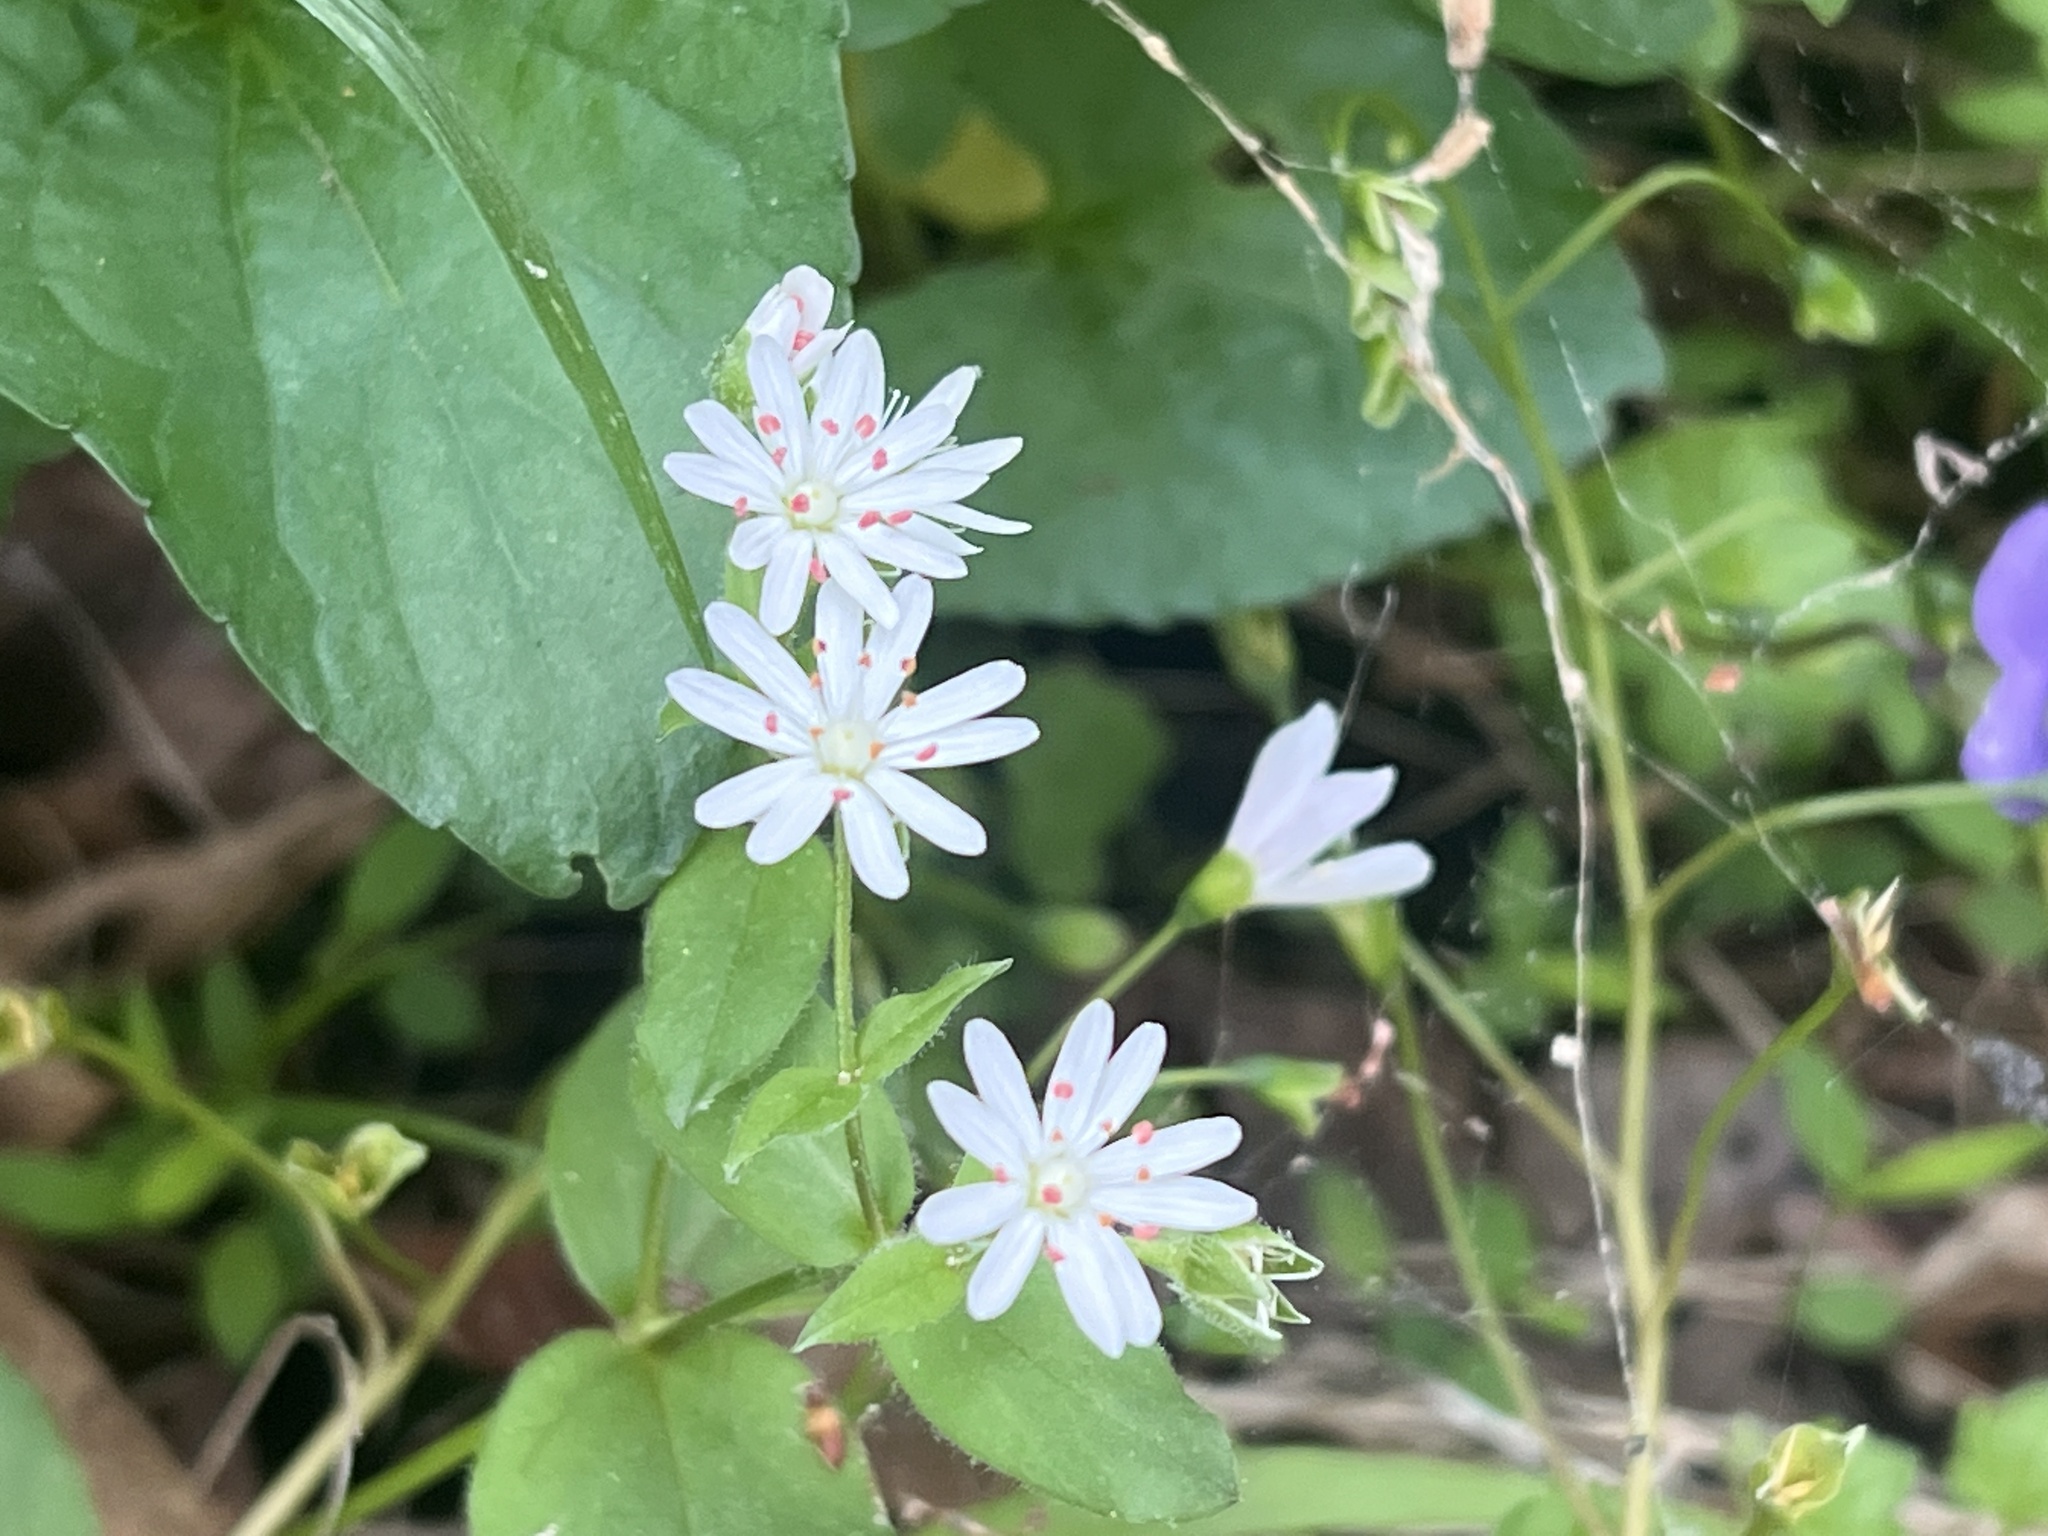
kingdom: Plantae
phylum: Tracheophyta
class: Magnoliopsida
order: Caryophyllales
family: Caryophyllaceae
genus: Stellaria
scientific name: Stellaria pubera
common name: Star chickweed
